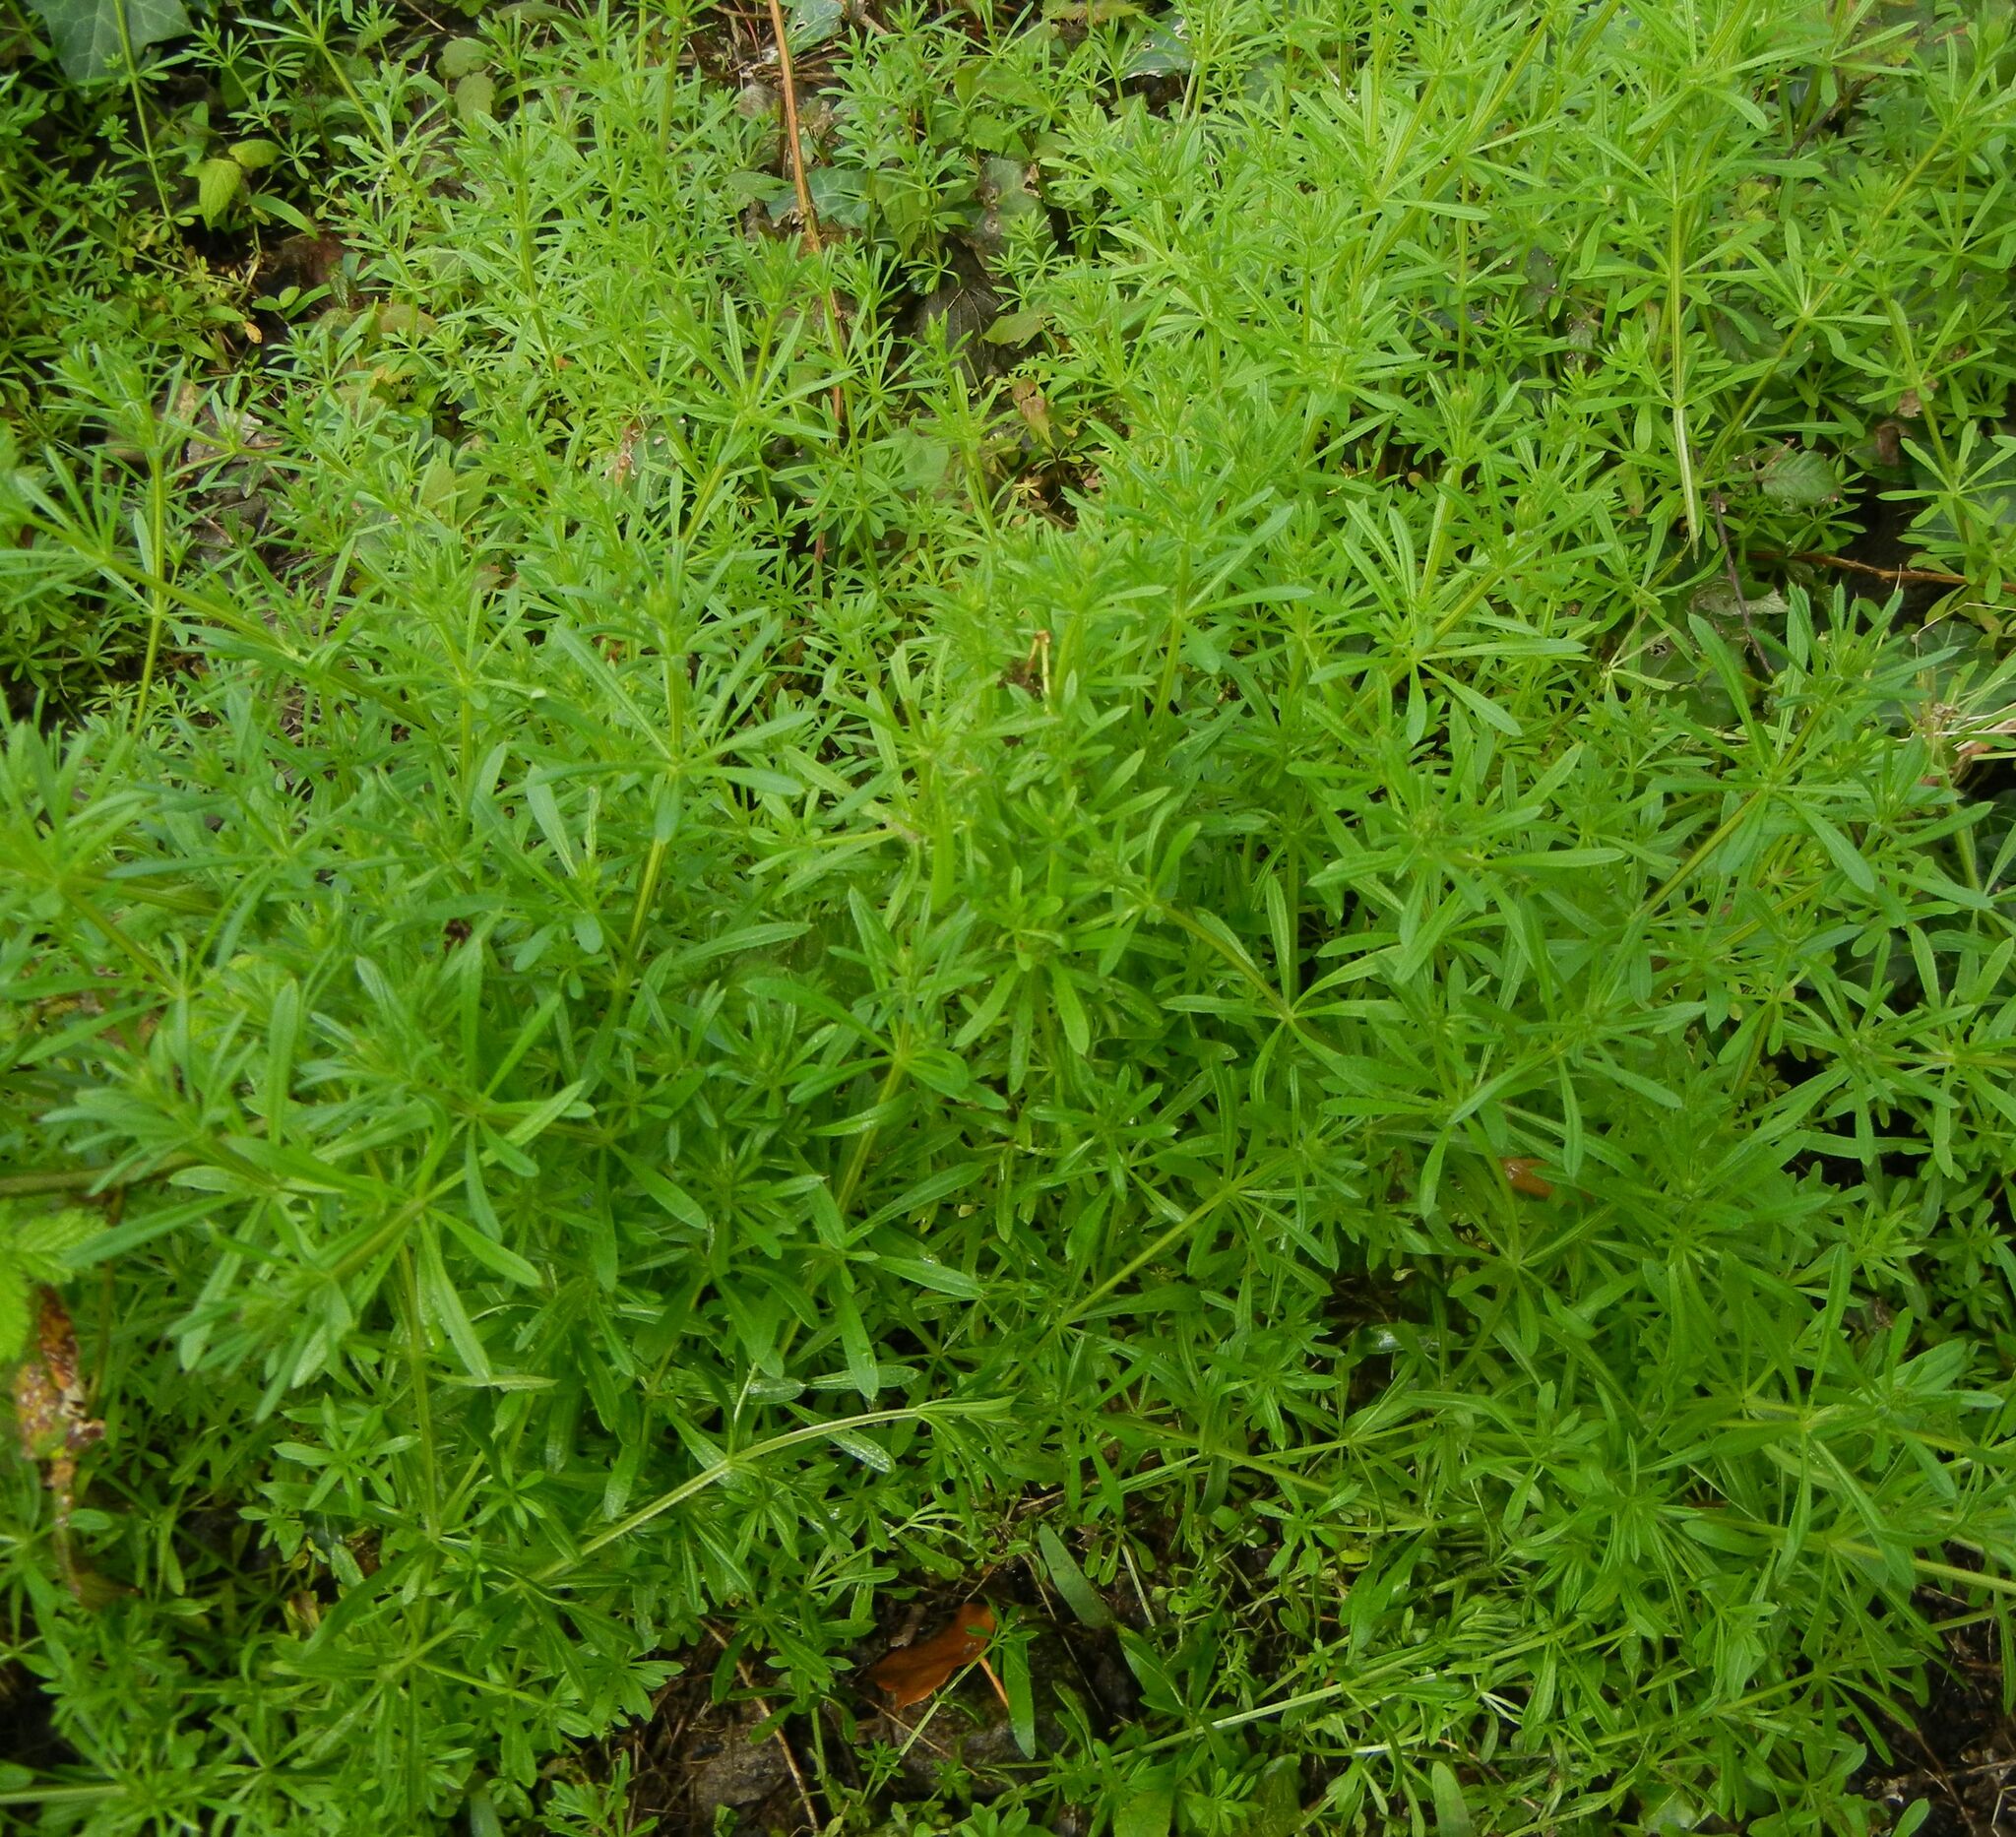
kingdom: Plantae
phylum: Tracheophyta
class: Magnoliopsida
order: Gentianales
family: Rubiaceae
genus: Galium
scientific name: Galium aparine
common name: Cleavers
